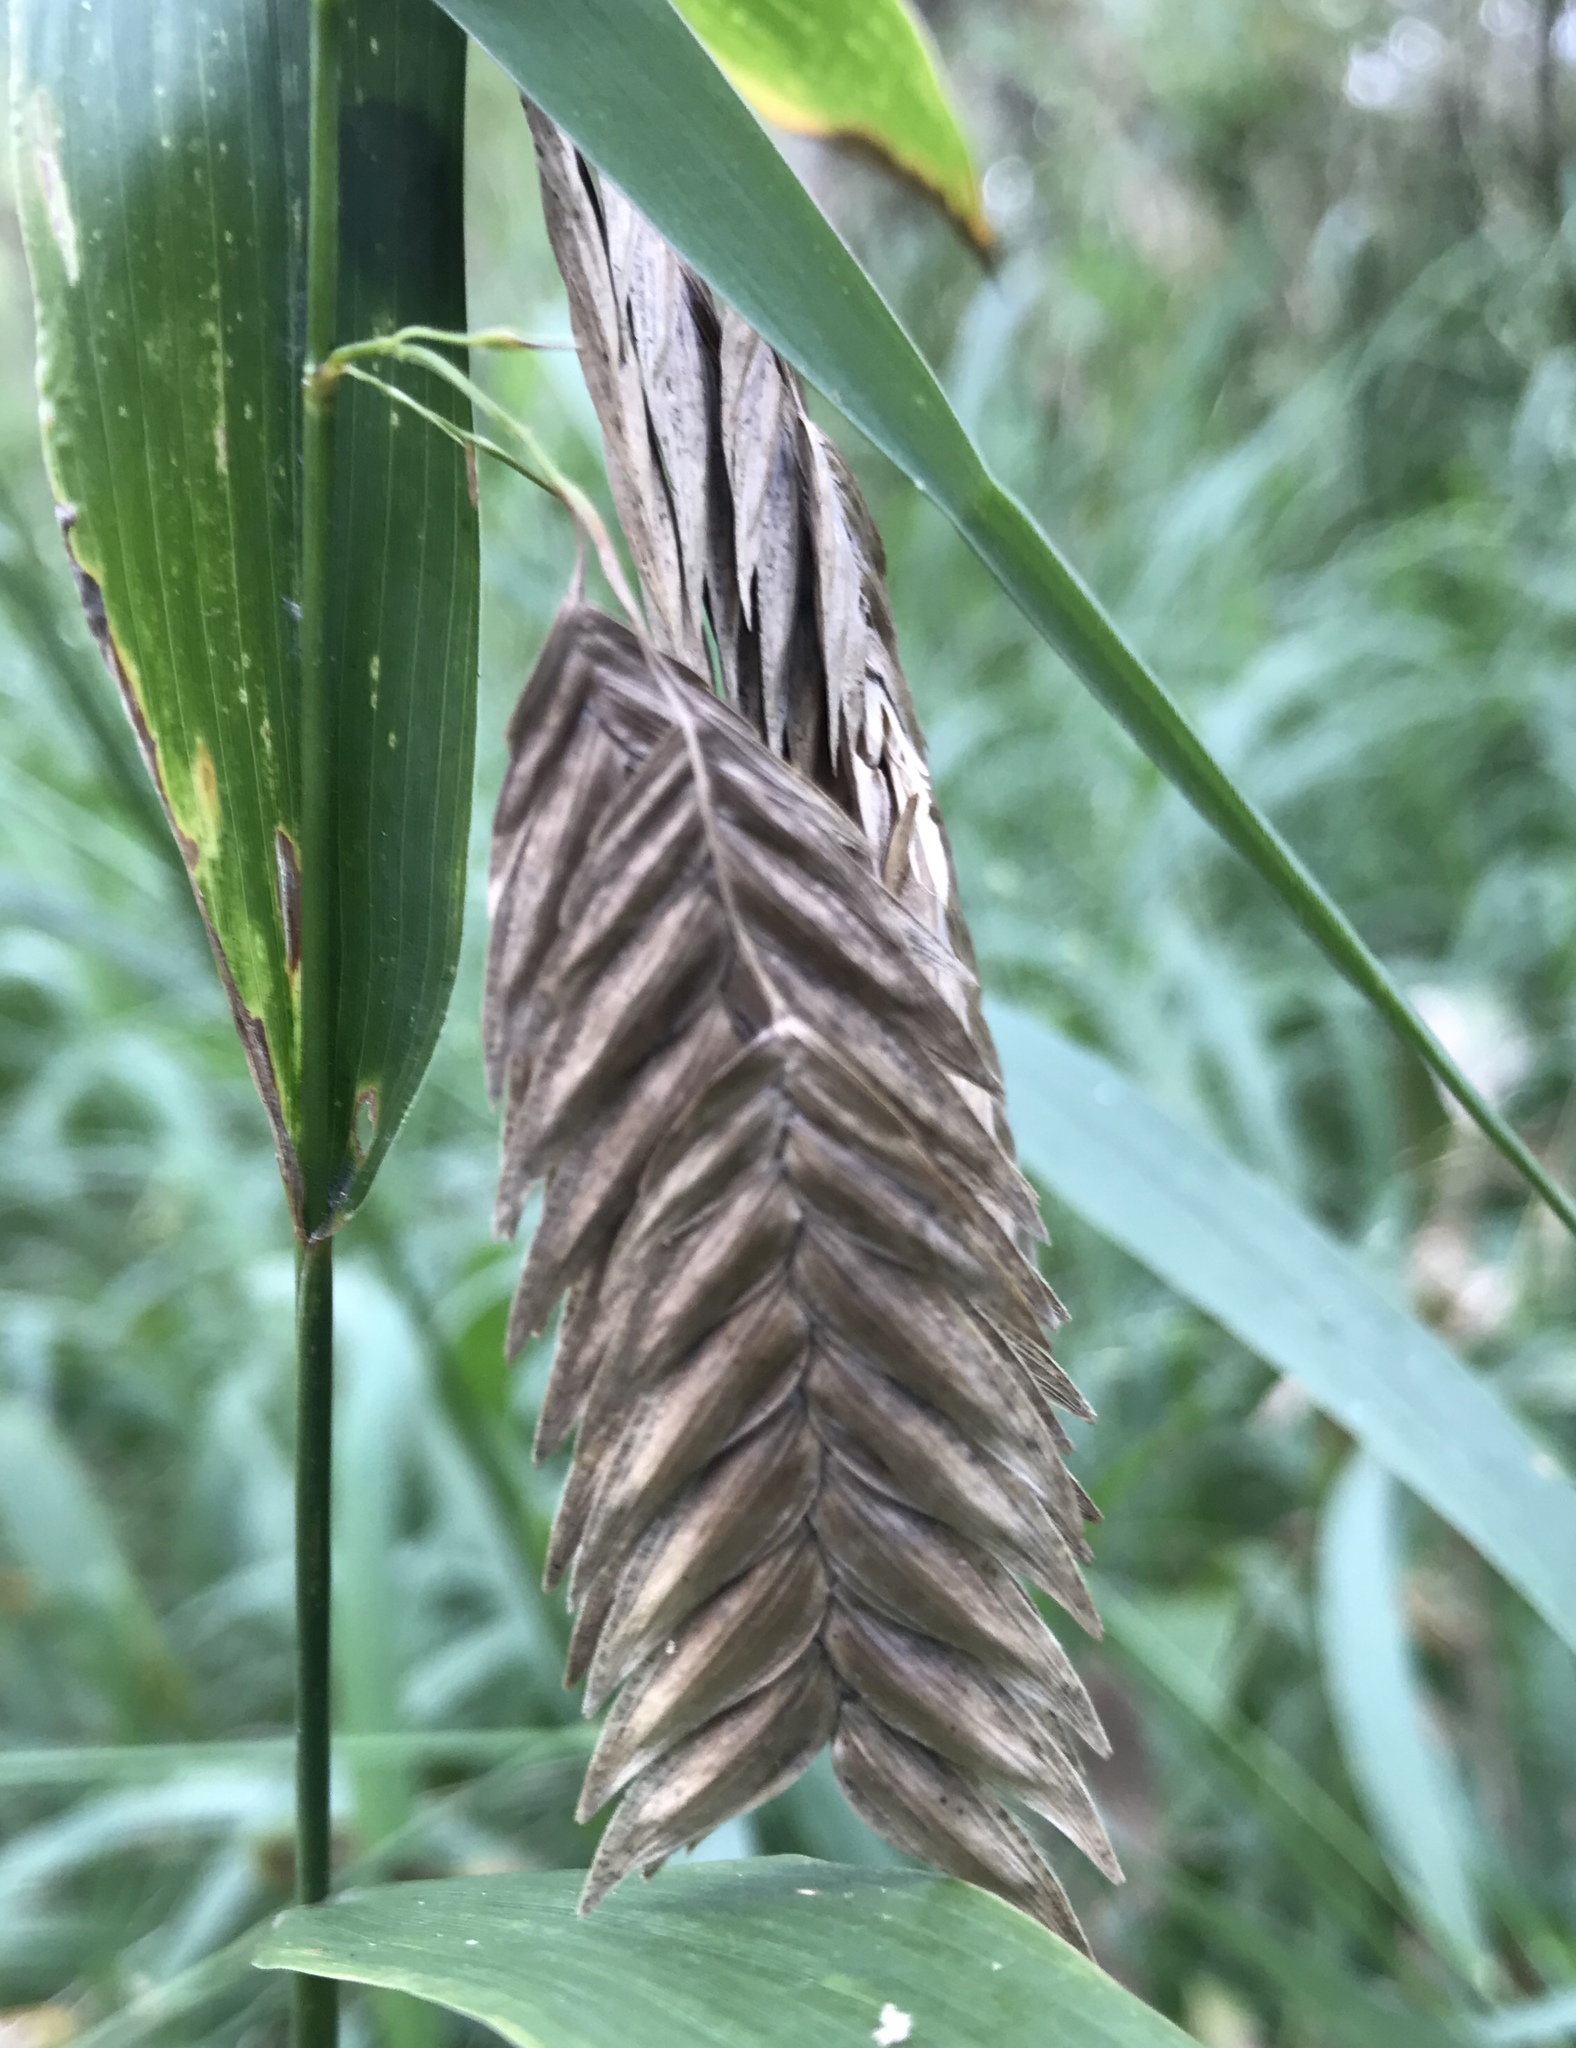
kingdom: Plantae
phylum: Tracheophyta
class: Liliopsida
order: Poales
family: Poaceae
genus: Chasmanthium
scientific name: Chasmanthium latifolium
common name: Broad-leaved chasmanthium
